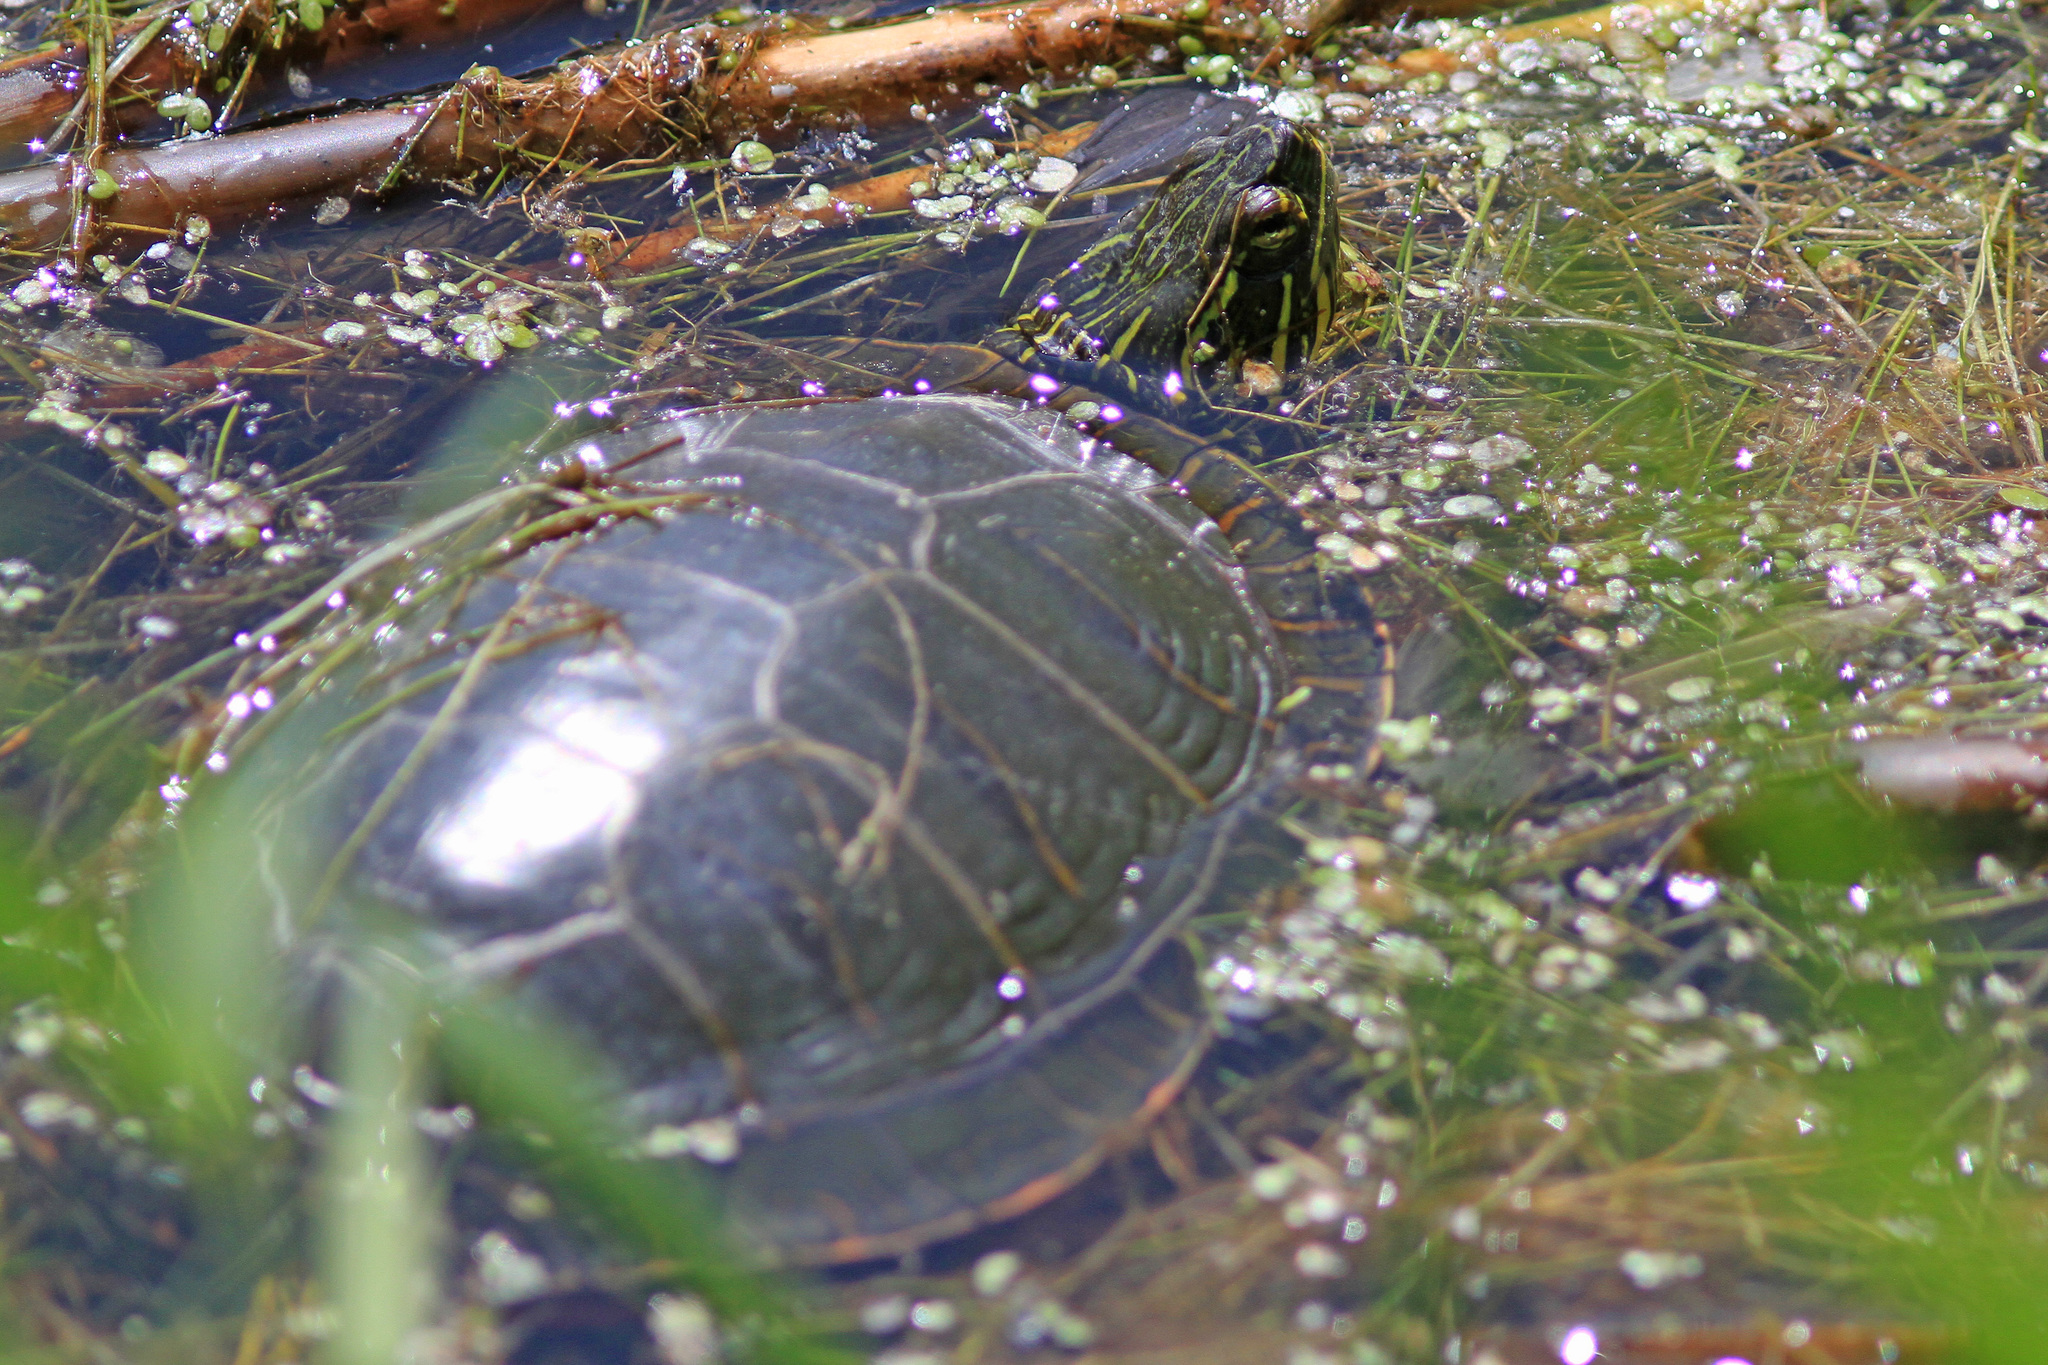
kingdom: Animalia
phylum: Chordata
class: Testudines
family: Emydidae
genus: Chrysemys
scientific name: Chrysemys picta
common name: Painted turtle
